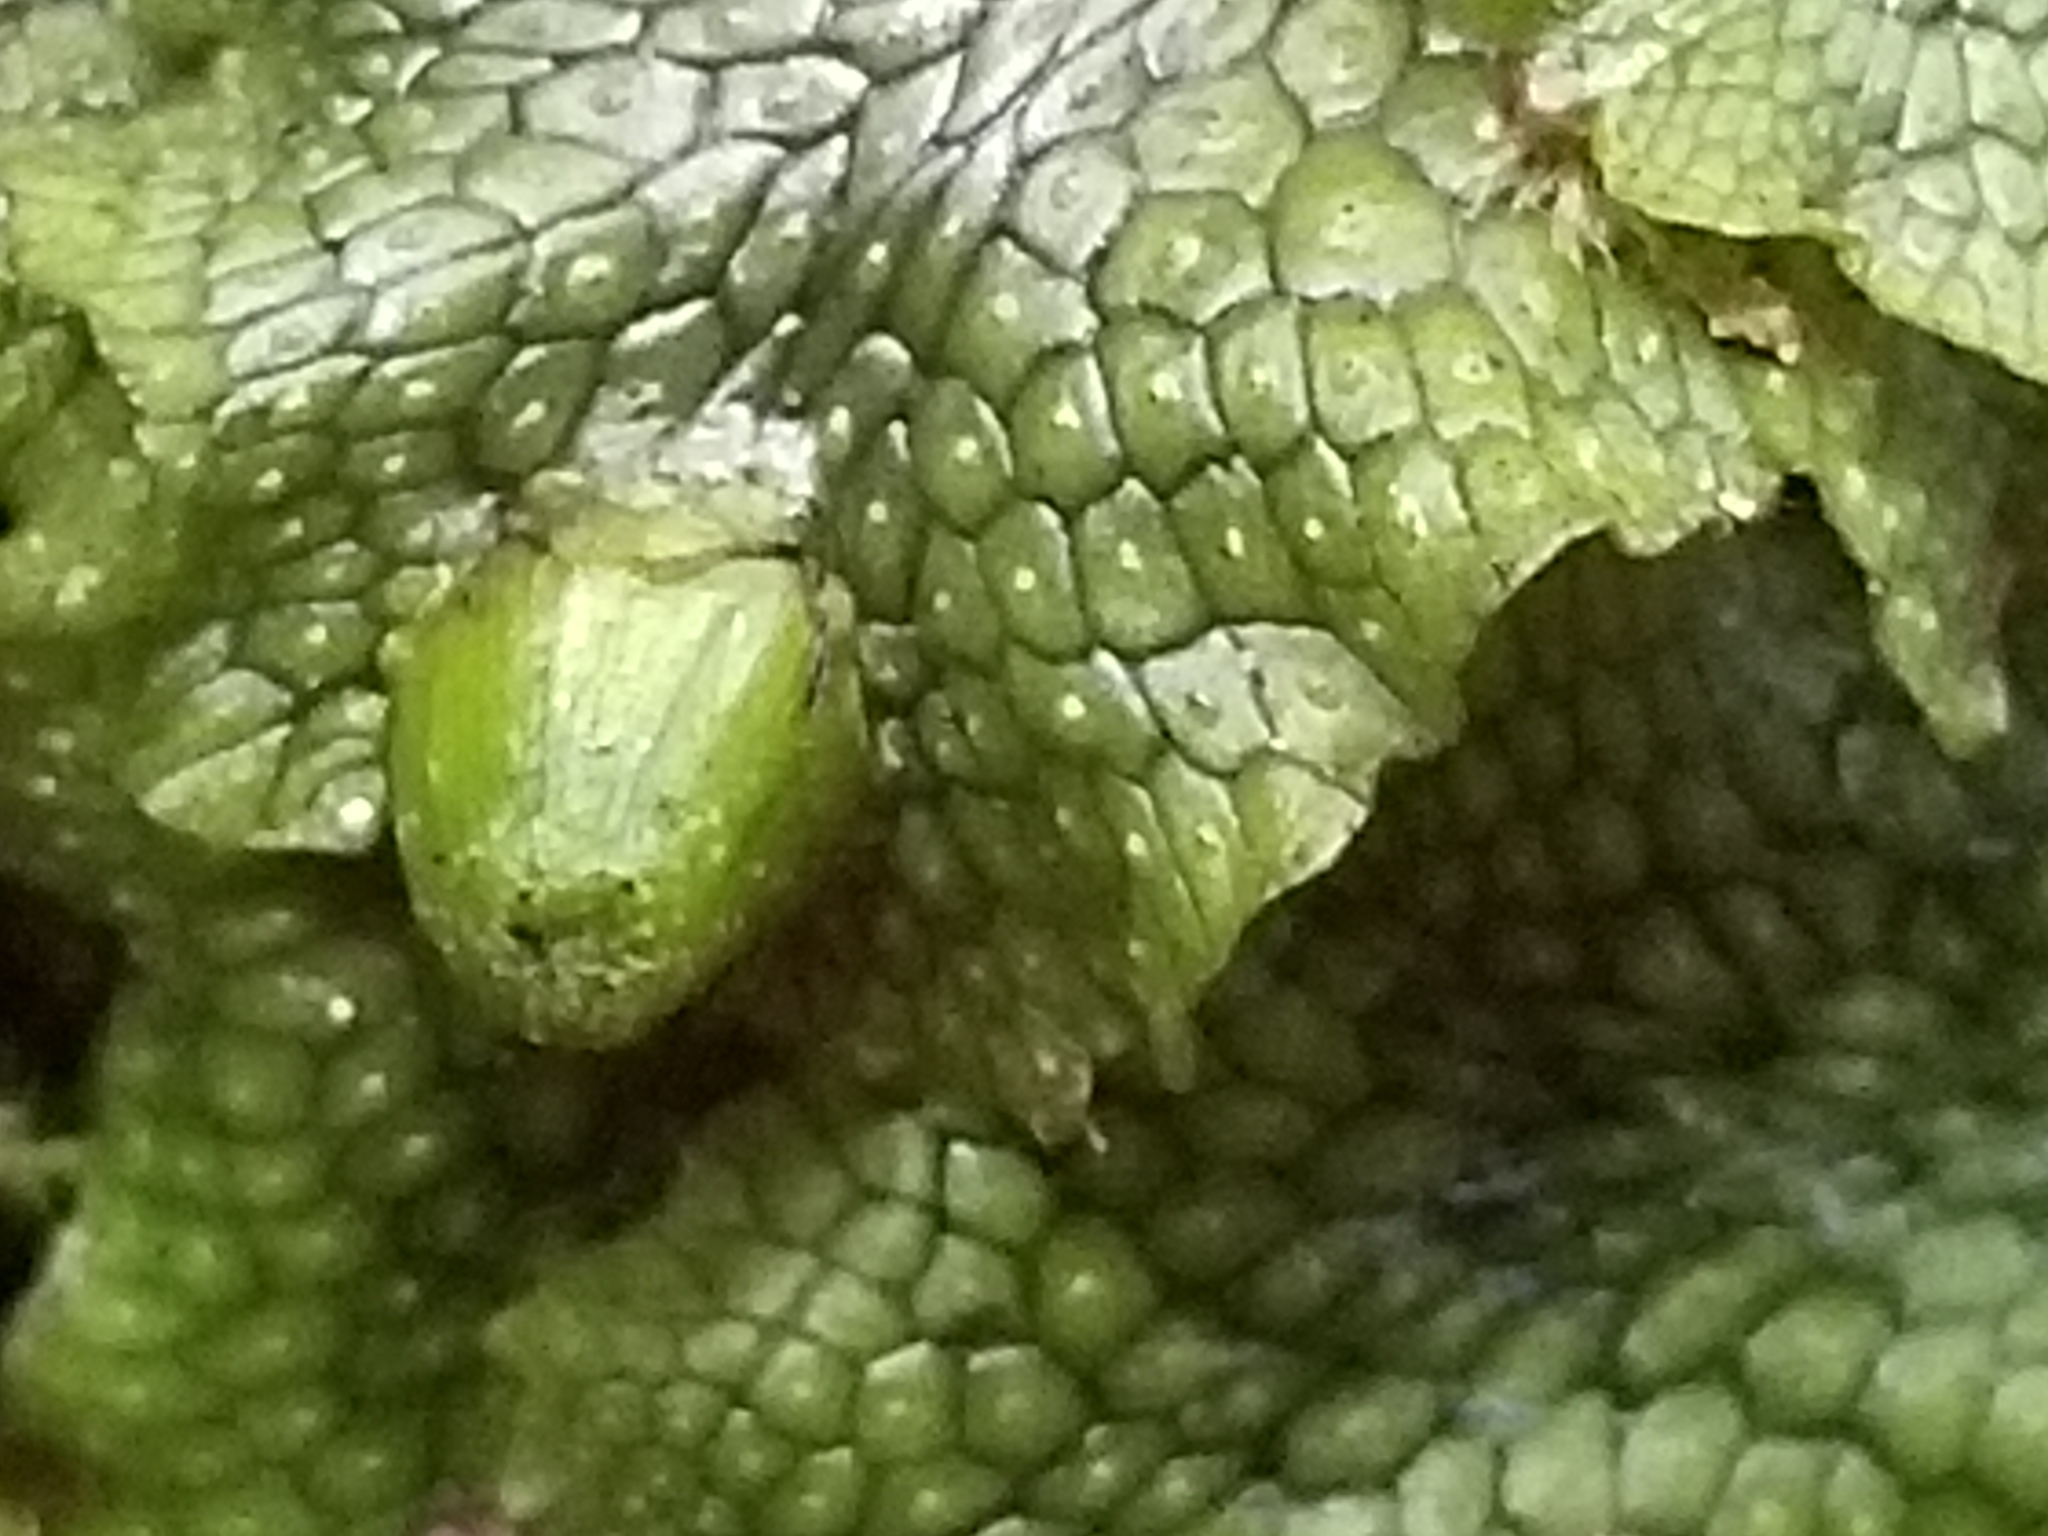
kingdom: Plantae
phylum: Marchantiophyta
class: Marchantiopsida
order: Marchantiales
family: Conocephalaceae
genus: Conocephalum
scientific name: Conocephalum salebrosum
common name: Cat-tongue liverwort
